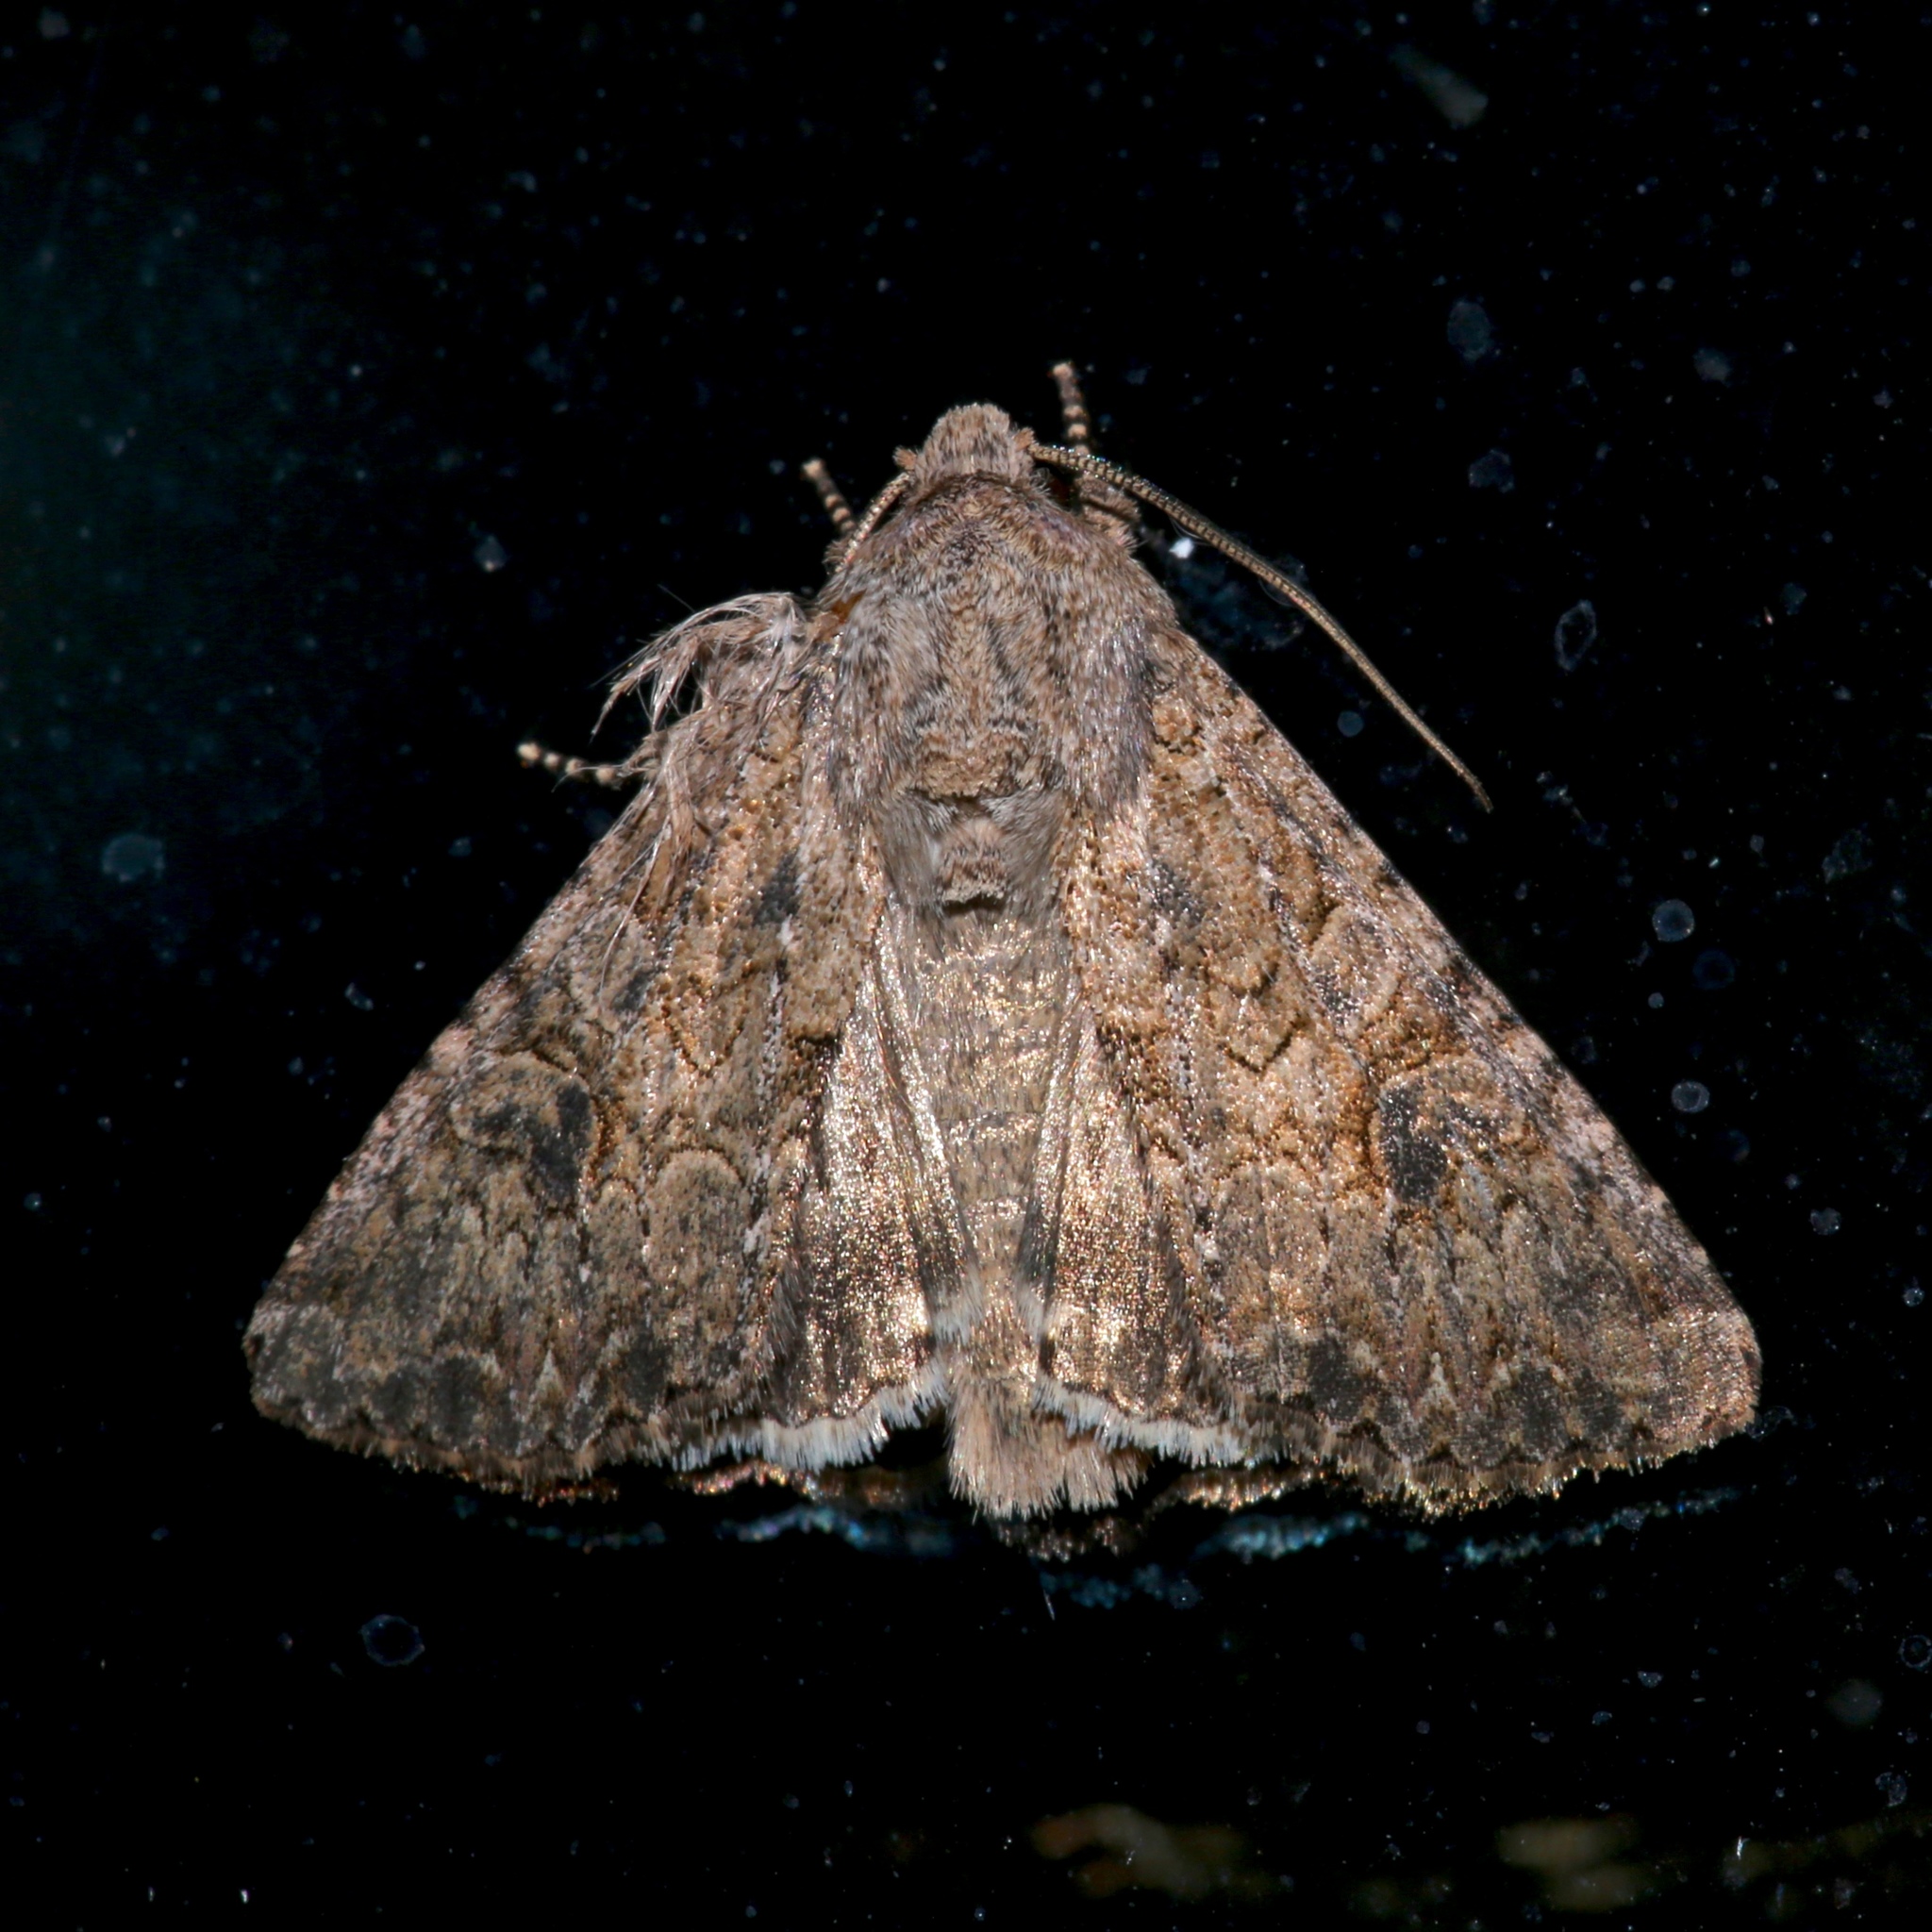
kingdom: Animalia
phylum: Arthropoda
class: Insecta
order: Lepidoptera
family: Noctuidae
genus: Anarta
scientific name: Anarta trifolii
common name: Clover cutworm moth
